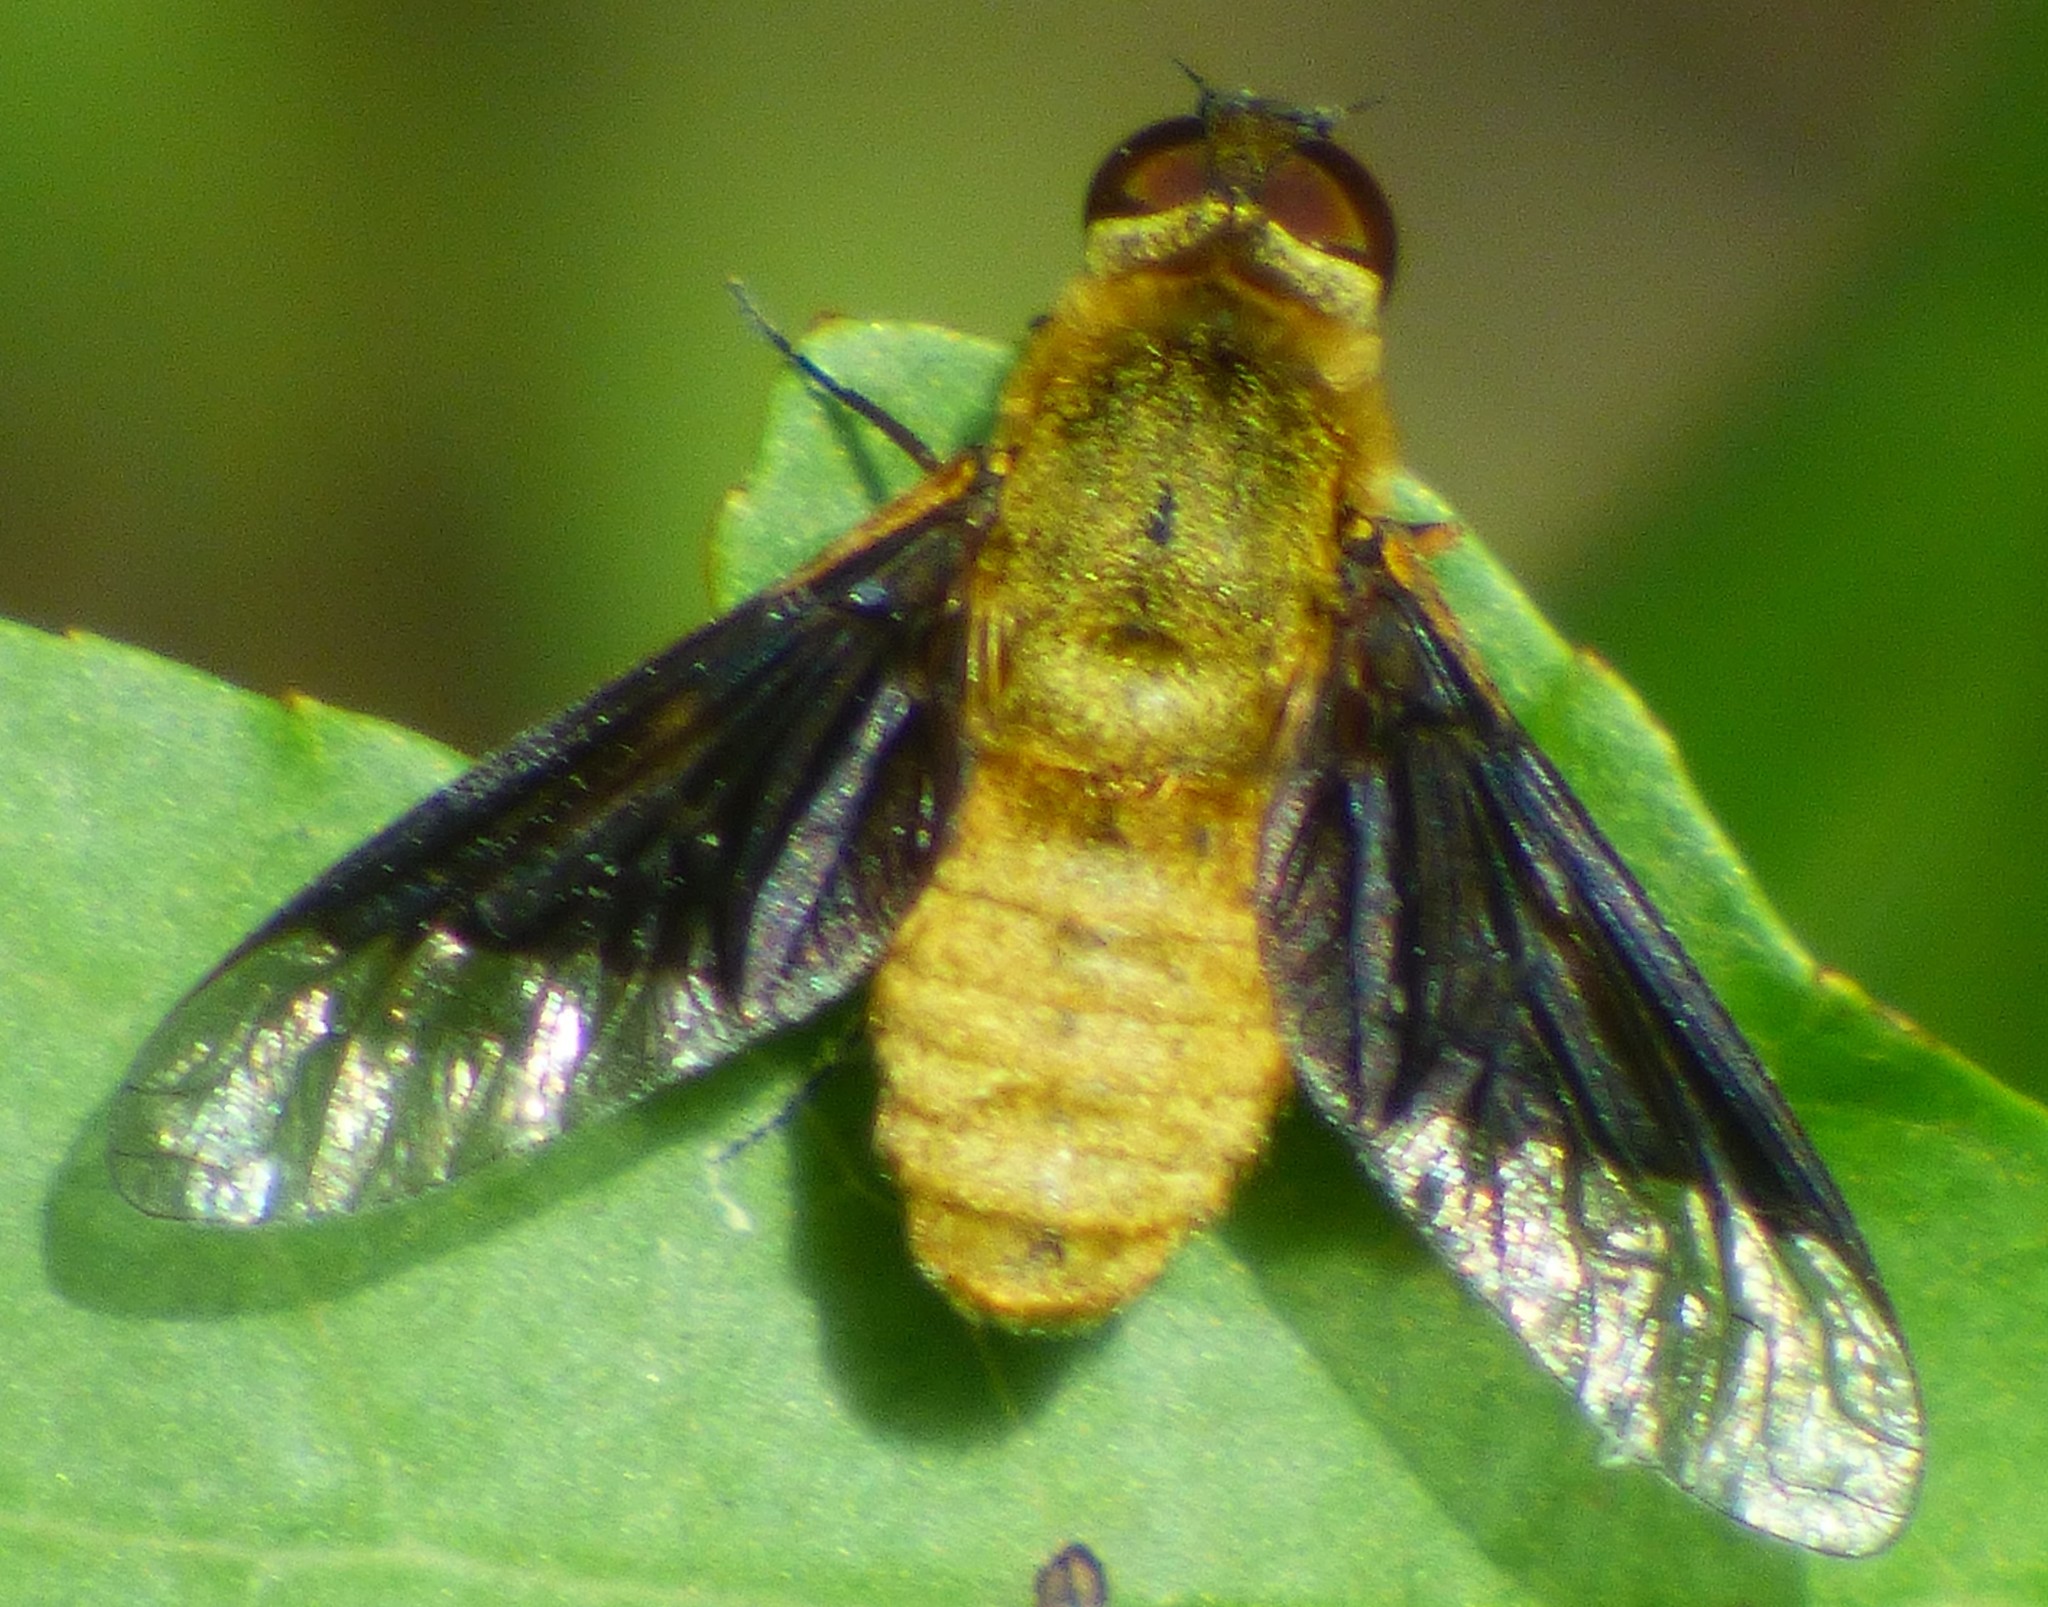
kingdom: Animalia
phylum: Arthropoda
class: Insecta
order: Diptera
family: Bombyliidae
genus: Chrysanthrax
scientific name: Chrysanthrax cypris
